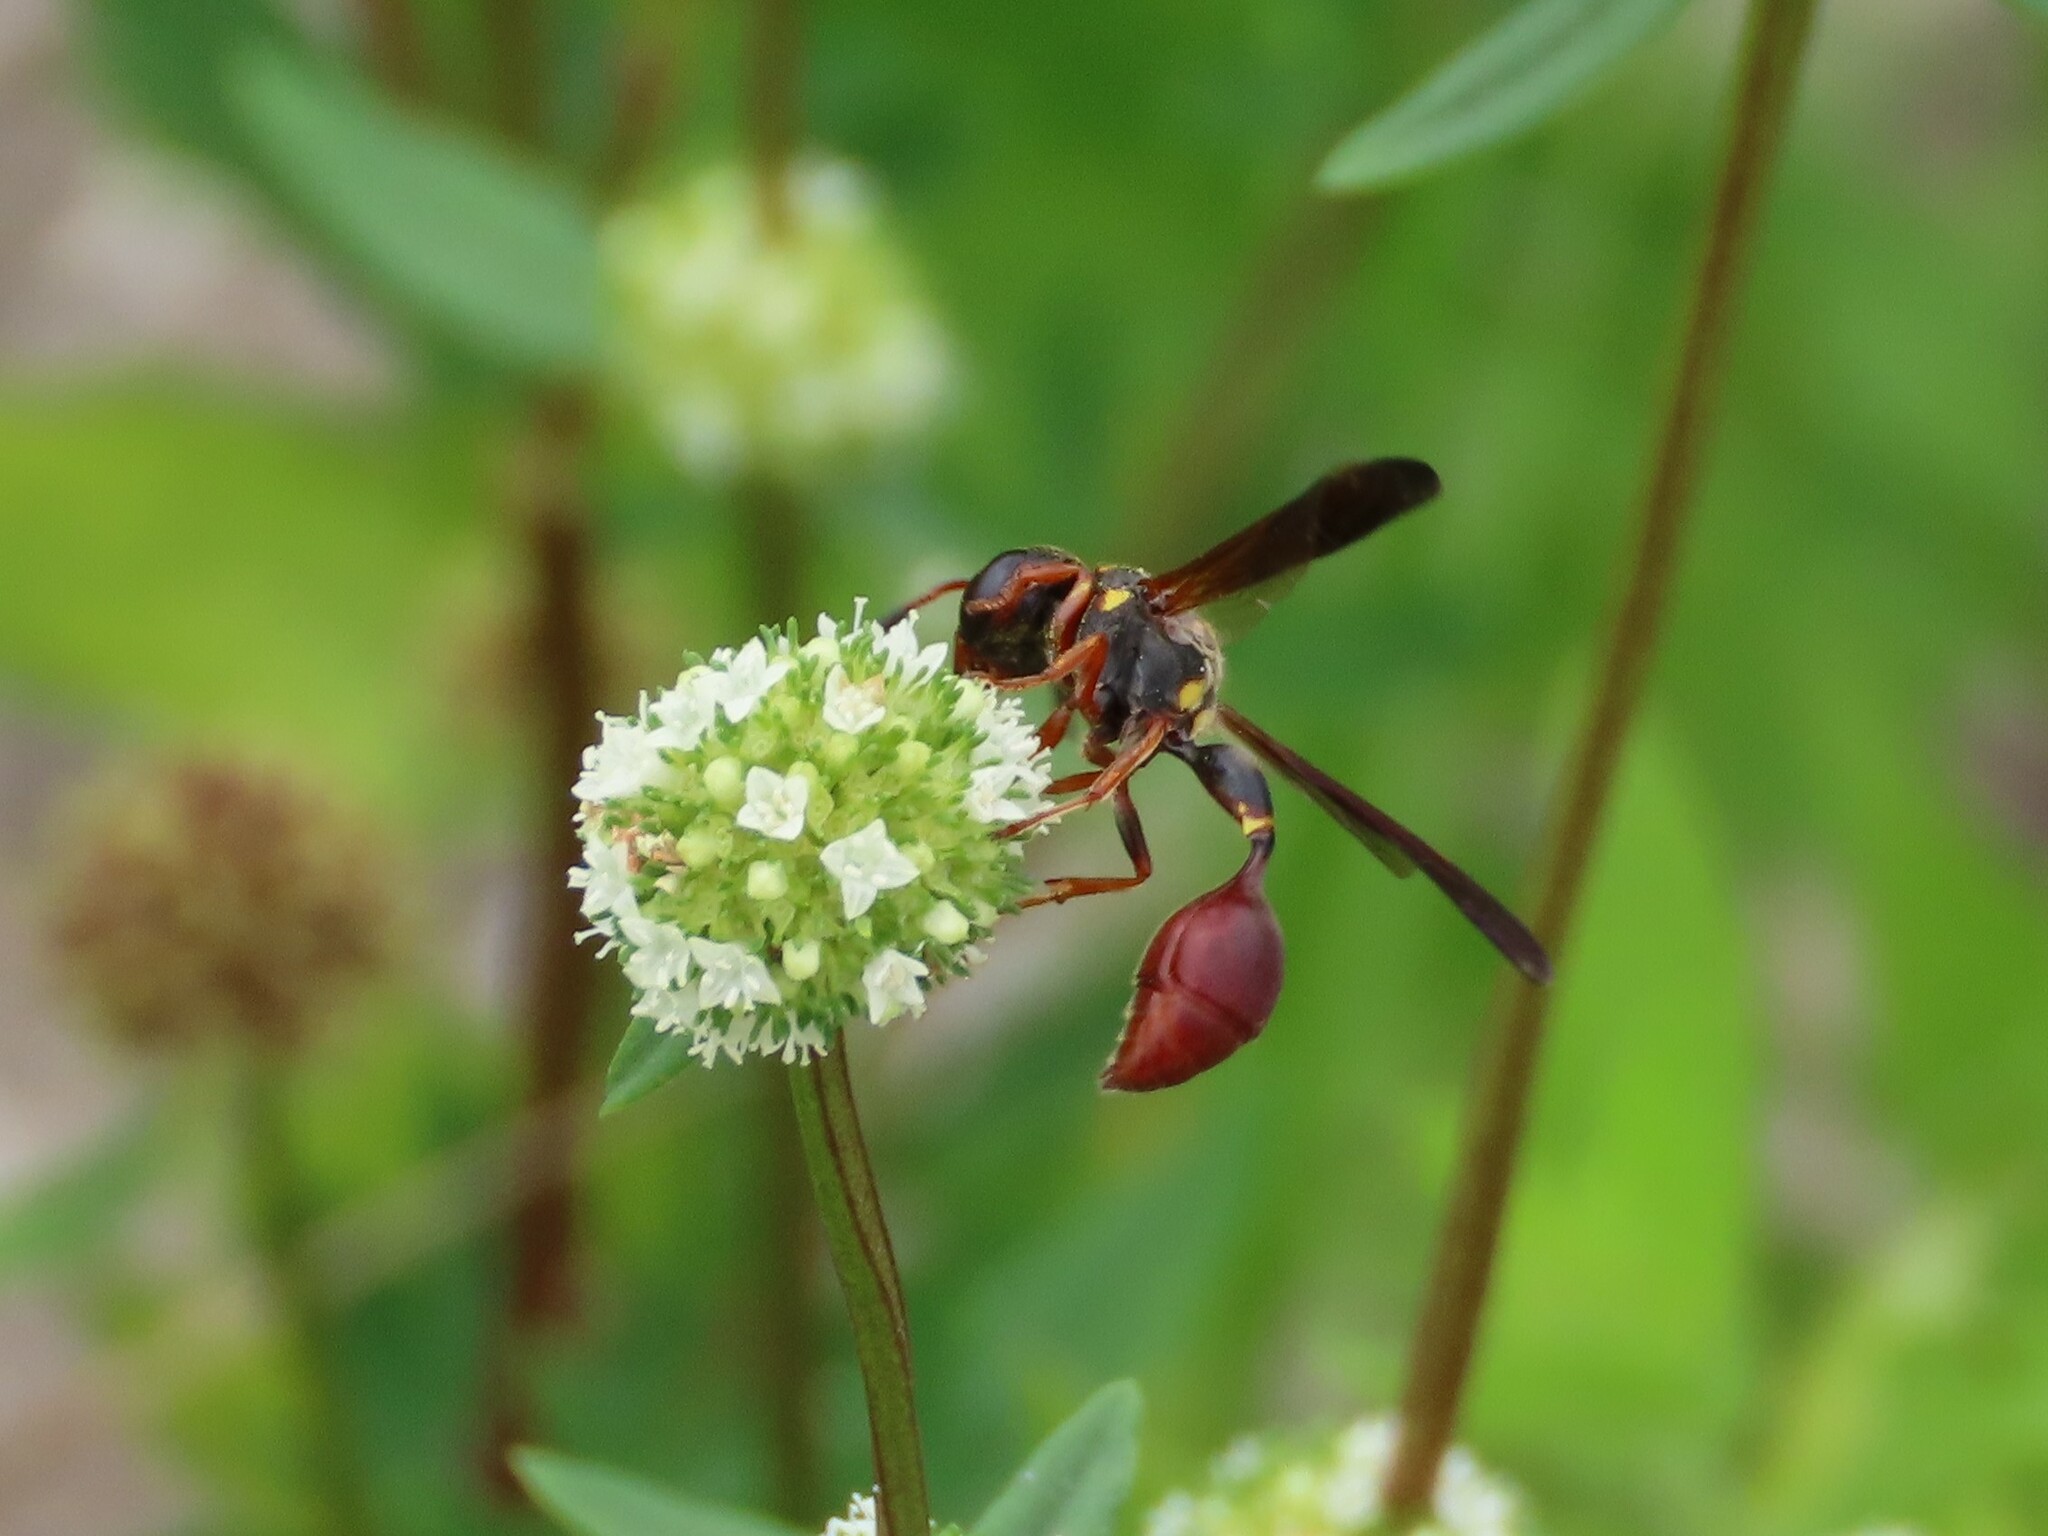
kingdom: Animalia
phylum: Arthropoda
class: Insecta
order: Hymenoptera
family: Eumenidae
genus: Zethus
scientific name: Zethus slossonae
